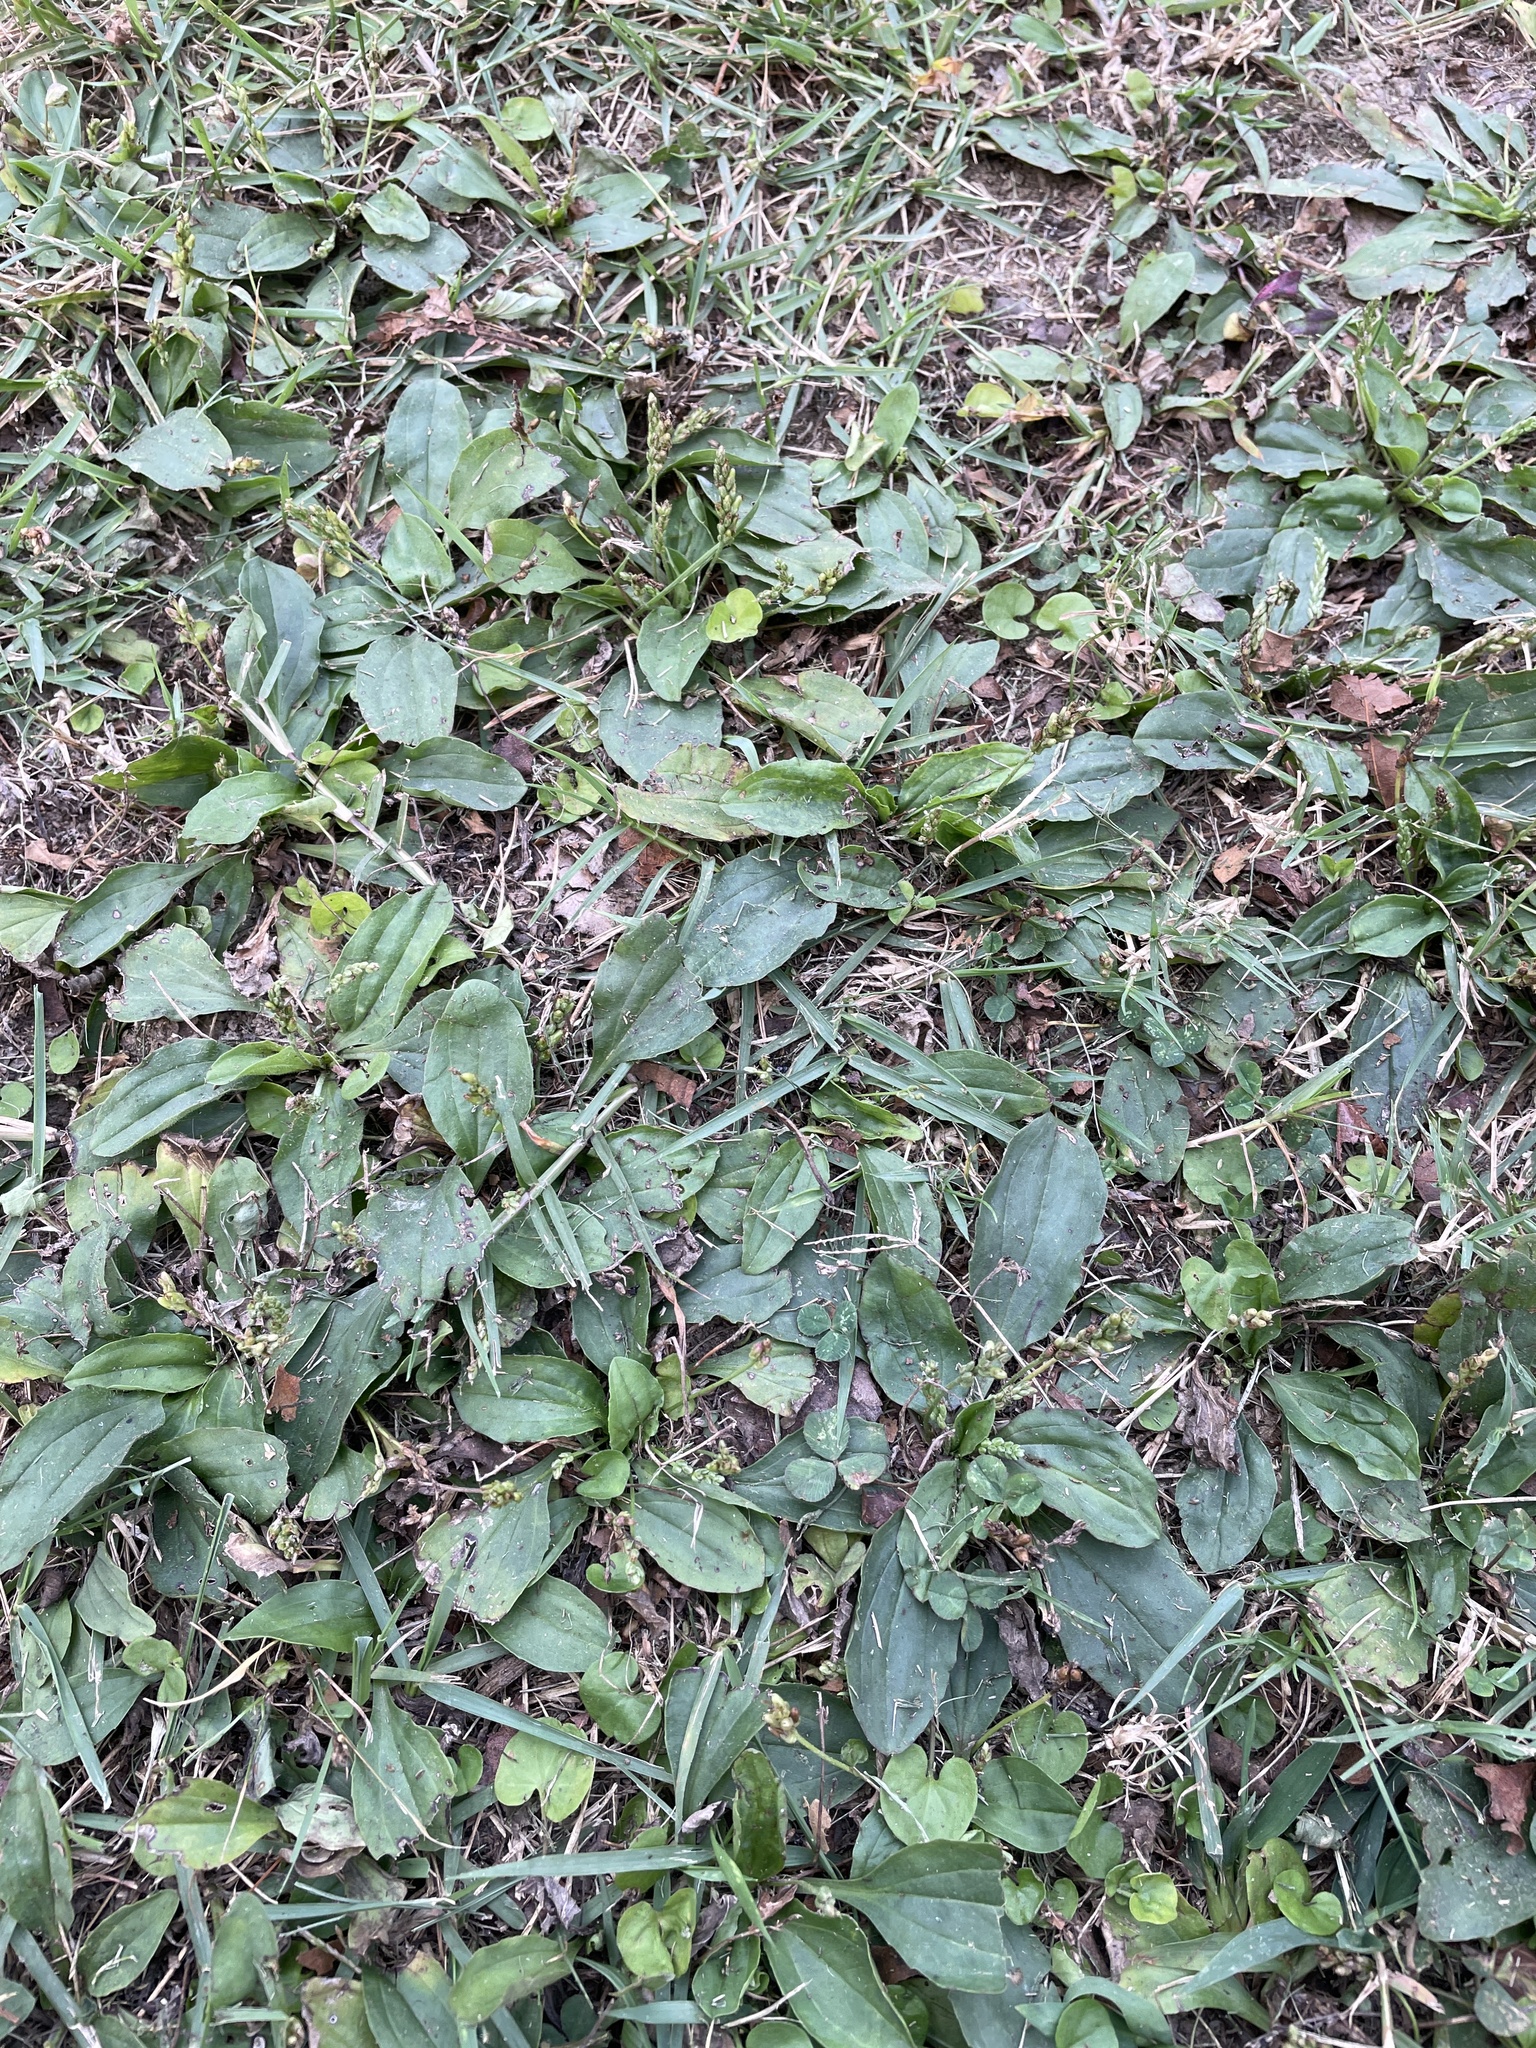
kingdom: Plantae
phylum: Tracheophyta
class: Magnoliopsida
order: Lamiales
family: Plantaginaceae
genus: Plantago
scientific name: Plantago rugelii
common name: American plantain
